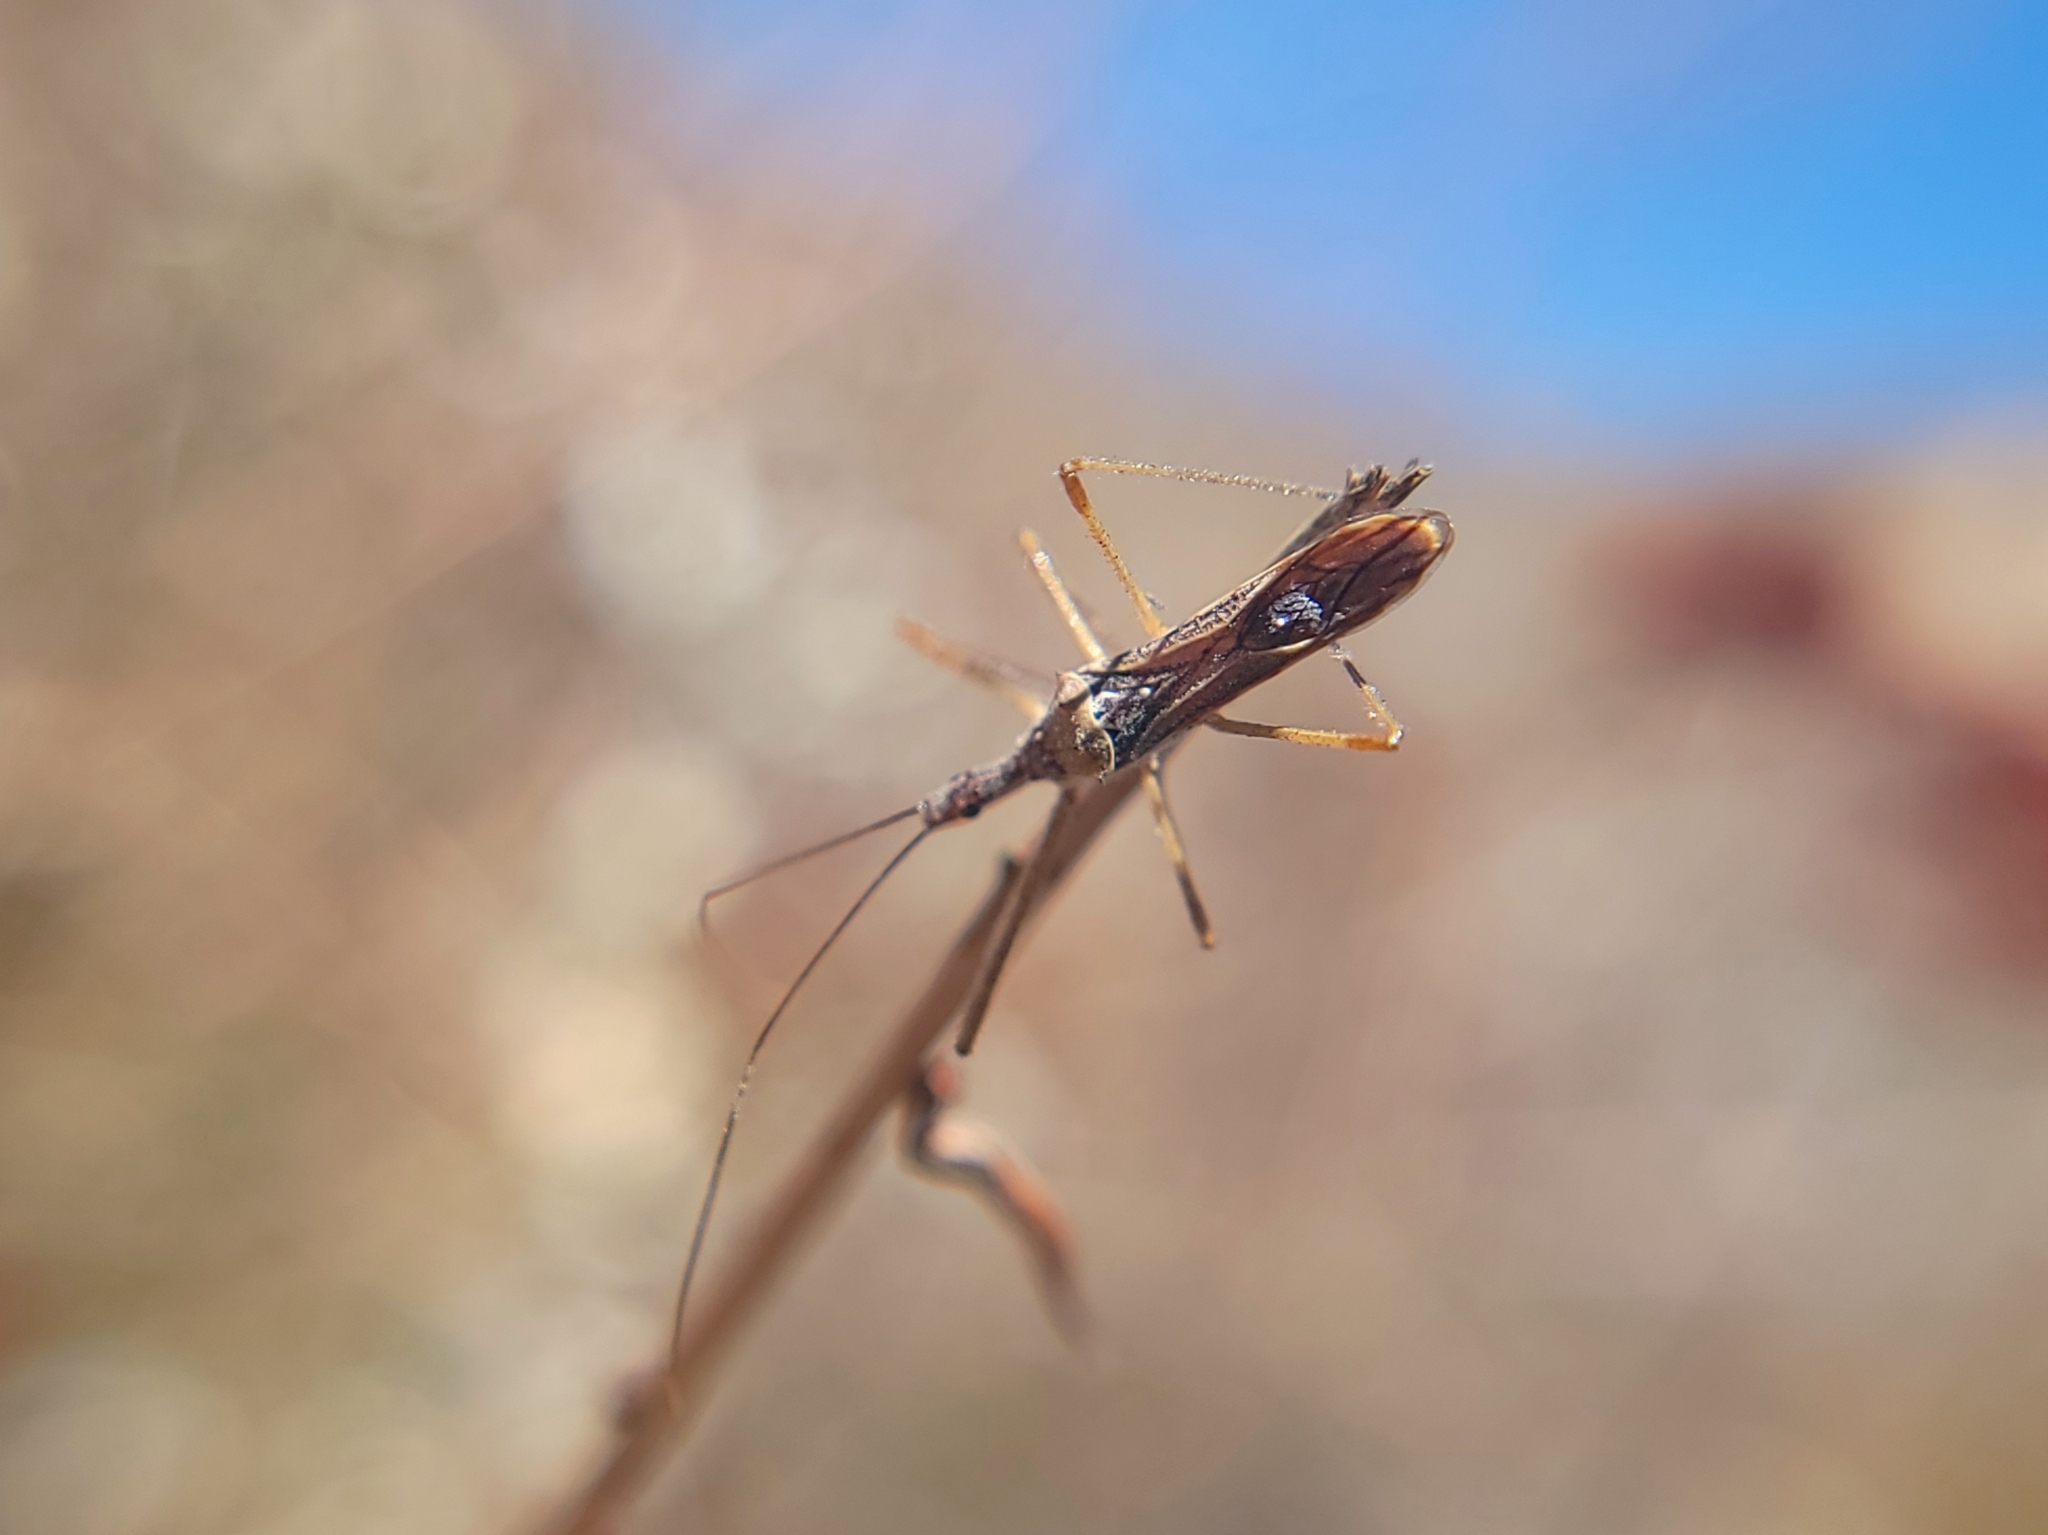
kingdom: Animalia
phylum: Arthropoda
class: Insecta
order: Hemiptera
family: Reduviidae
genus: Zelus
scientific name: Zelus tetracanthus
